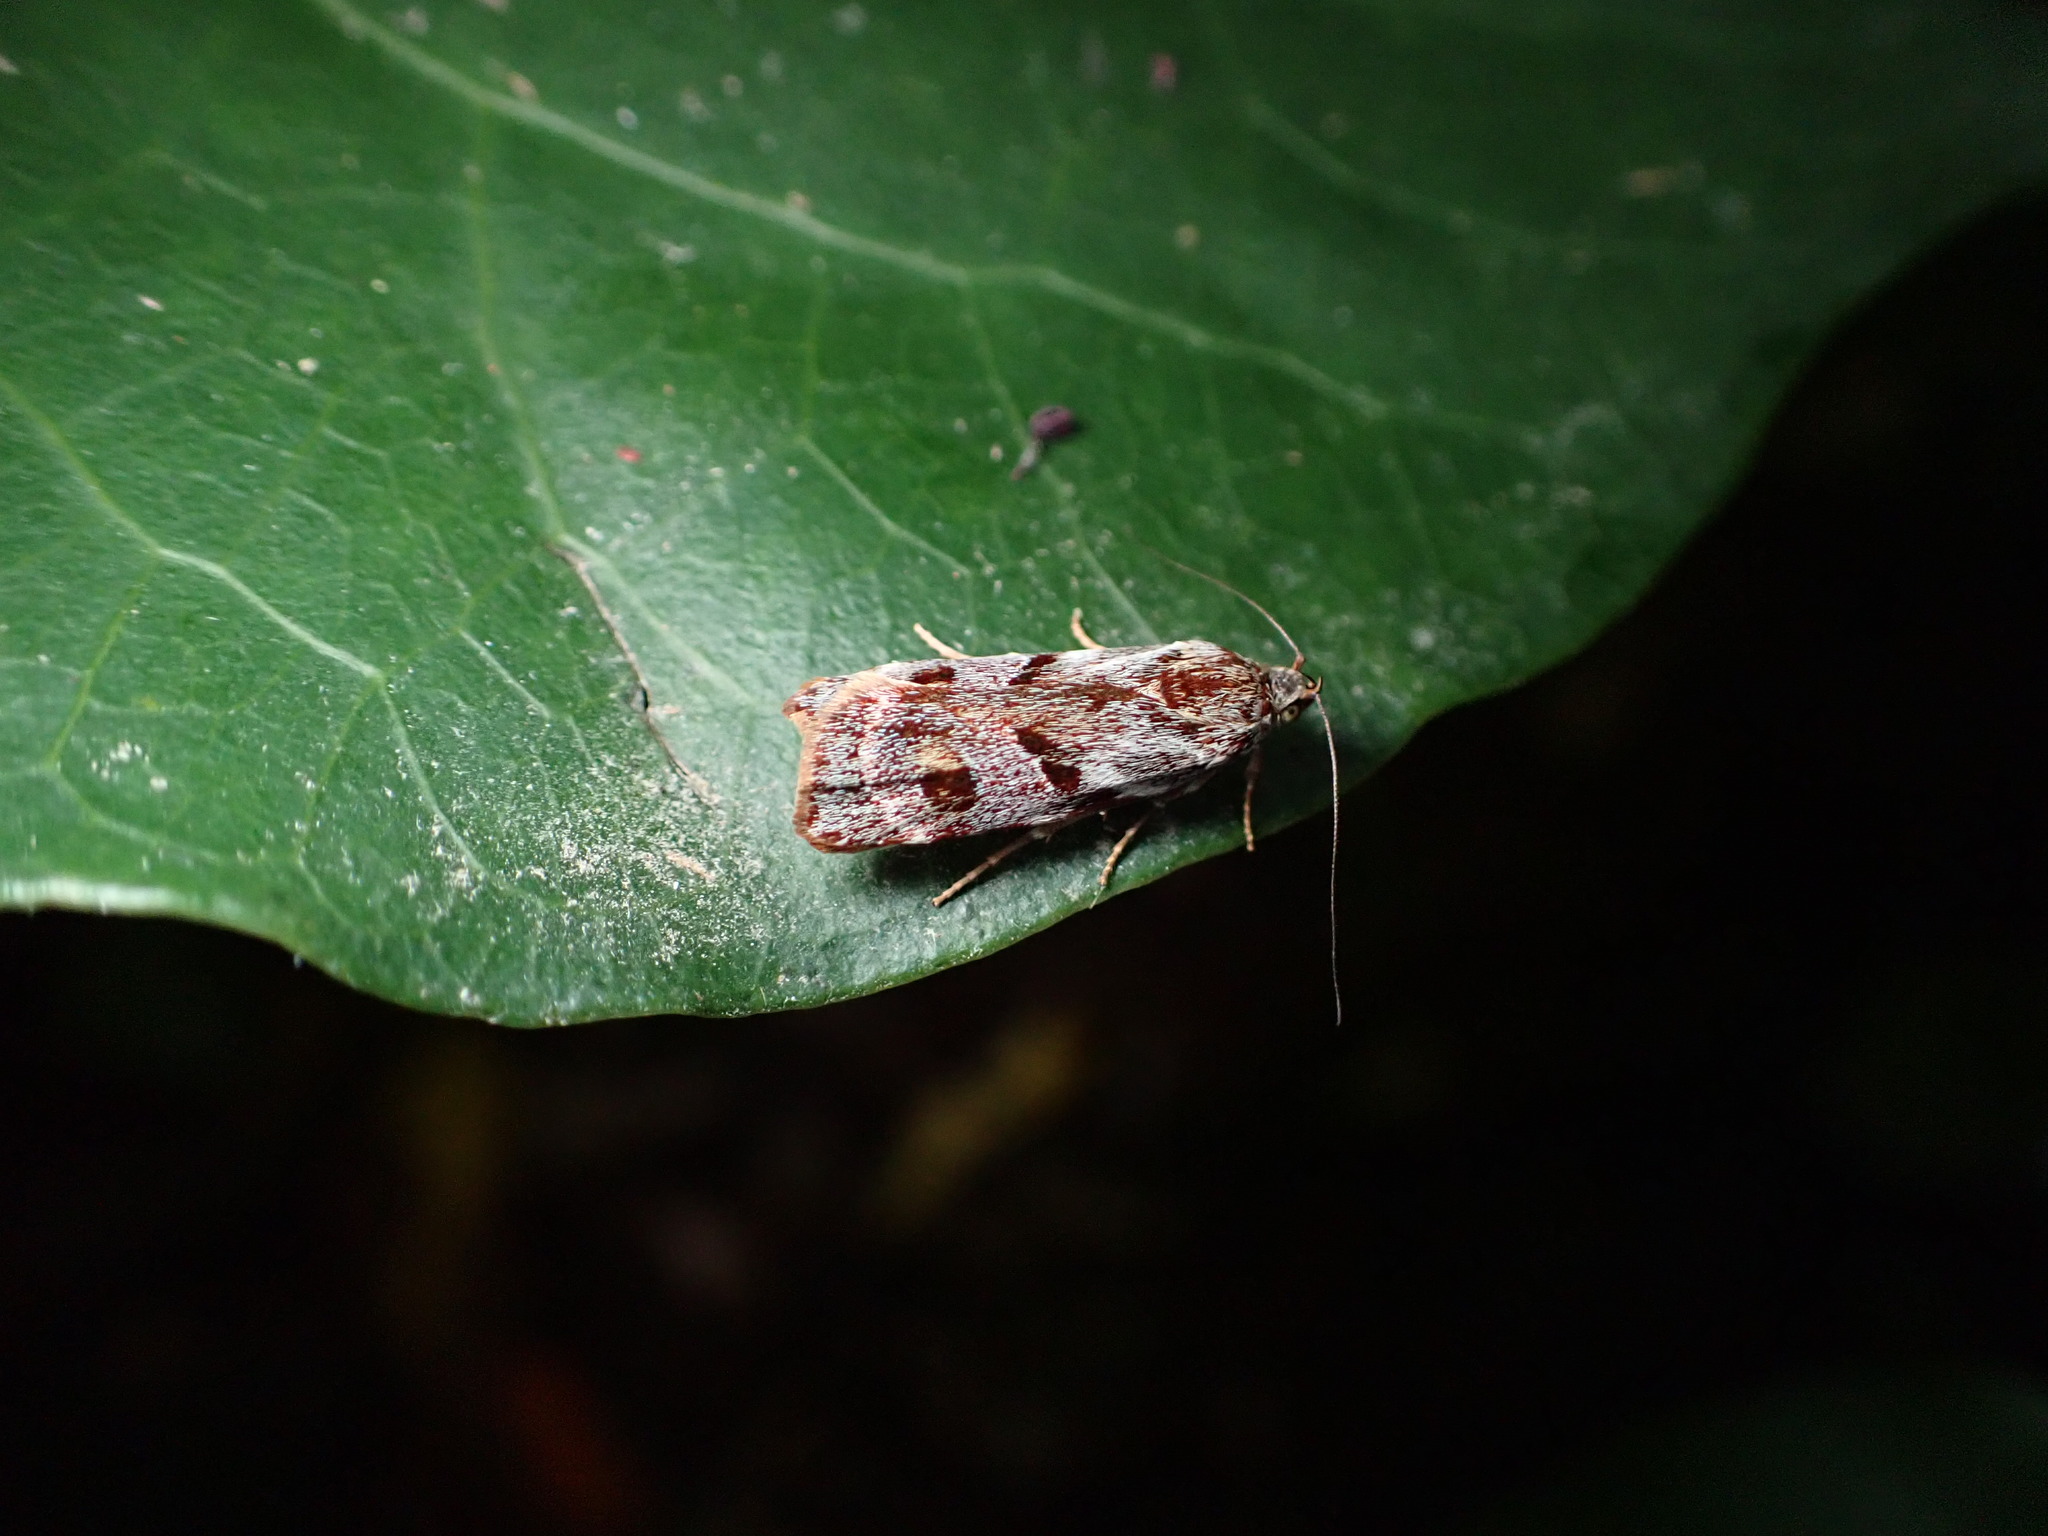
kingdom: Animalia
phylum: Arthropoda
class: Insecta
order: Lepidoptera
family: Oecophoridae
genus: Hierodoris
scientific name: Hierodoris
